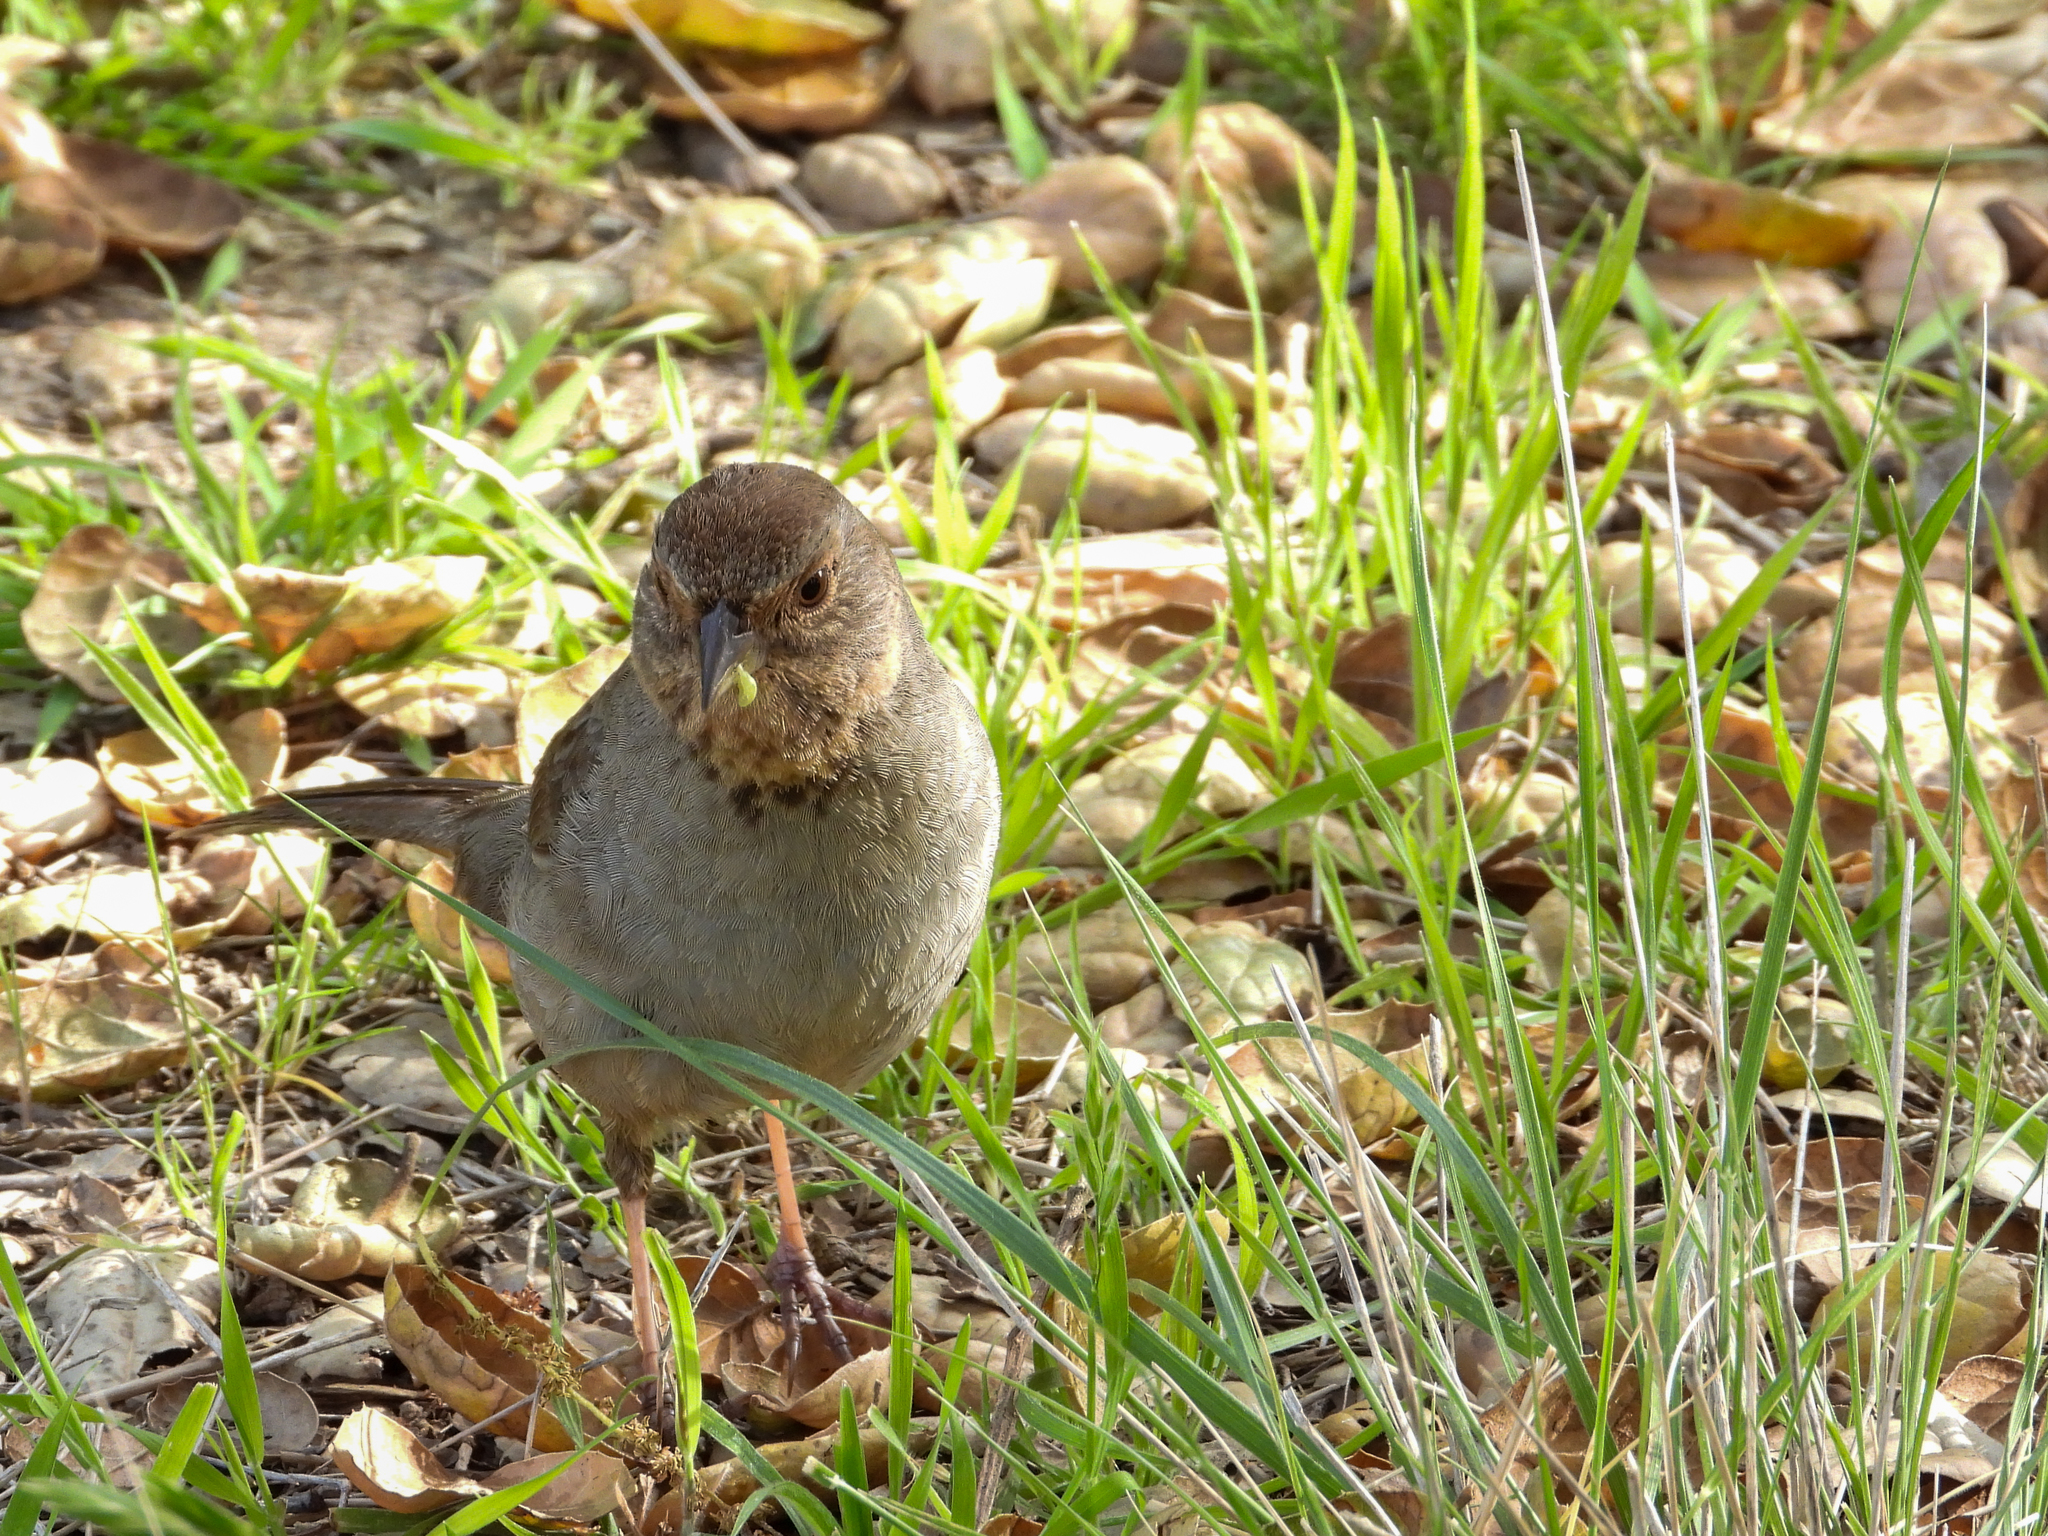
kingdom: Animalia
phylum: Chordata
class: Aves
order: Passeriformes
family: Passerellidae
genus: Melozone
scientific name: Melozone crissalis
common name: California towhee
